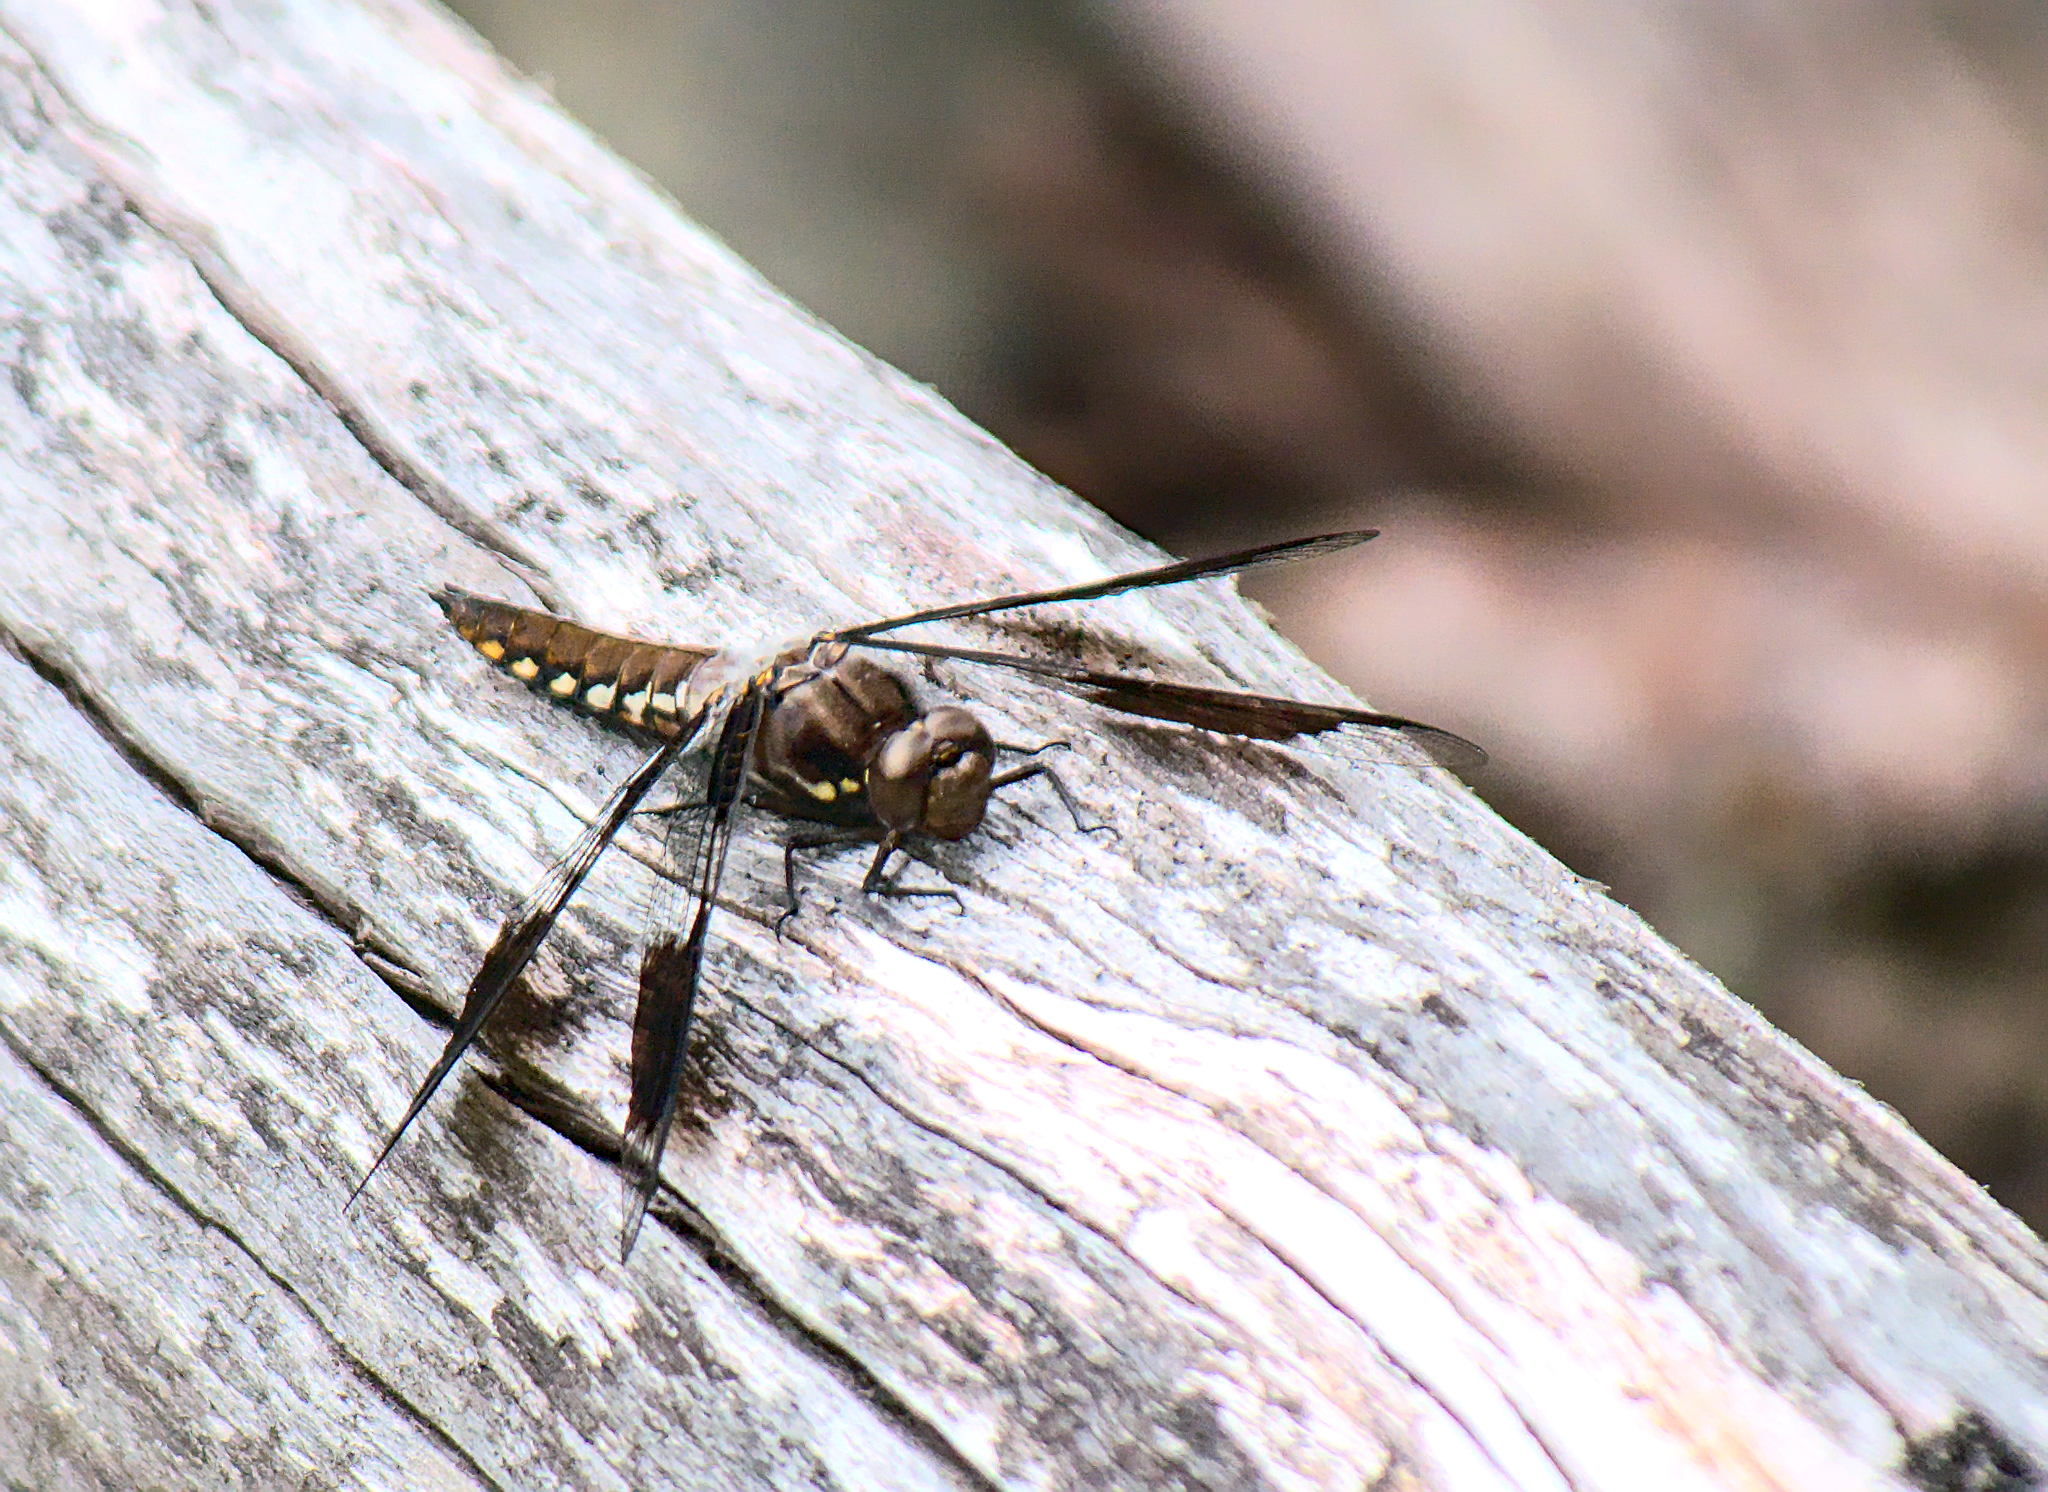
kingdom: Animalia
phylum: Arthropoda
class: Insecta
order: Odonata
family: Libellulidae
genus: Plathemis
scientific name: Plathemis lydia
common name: Common whitetail
